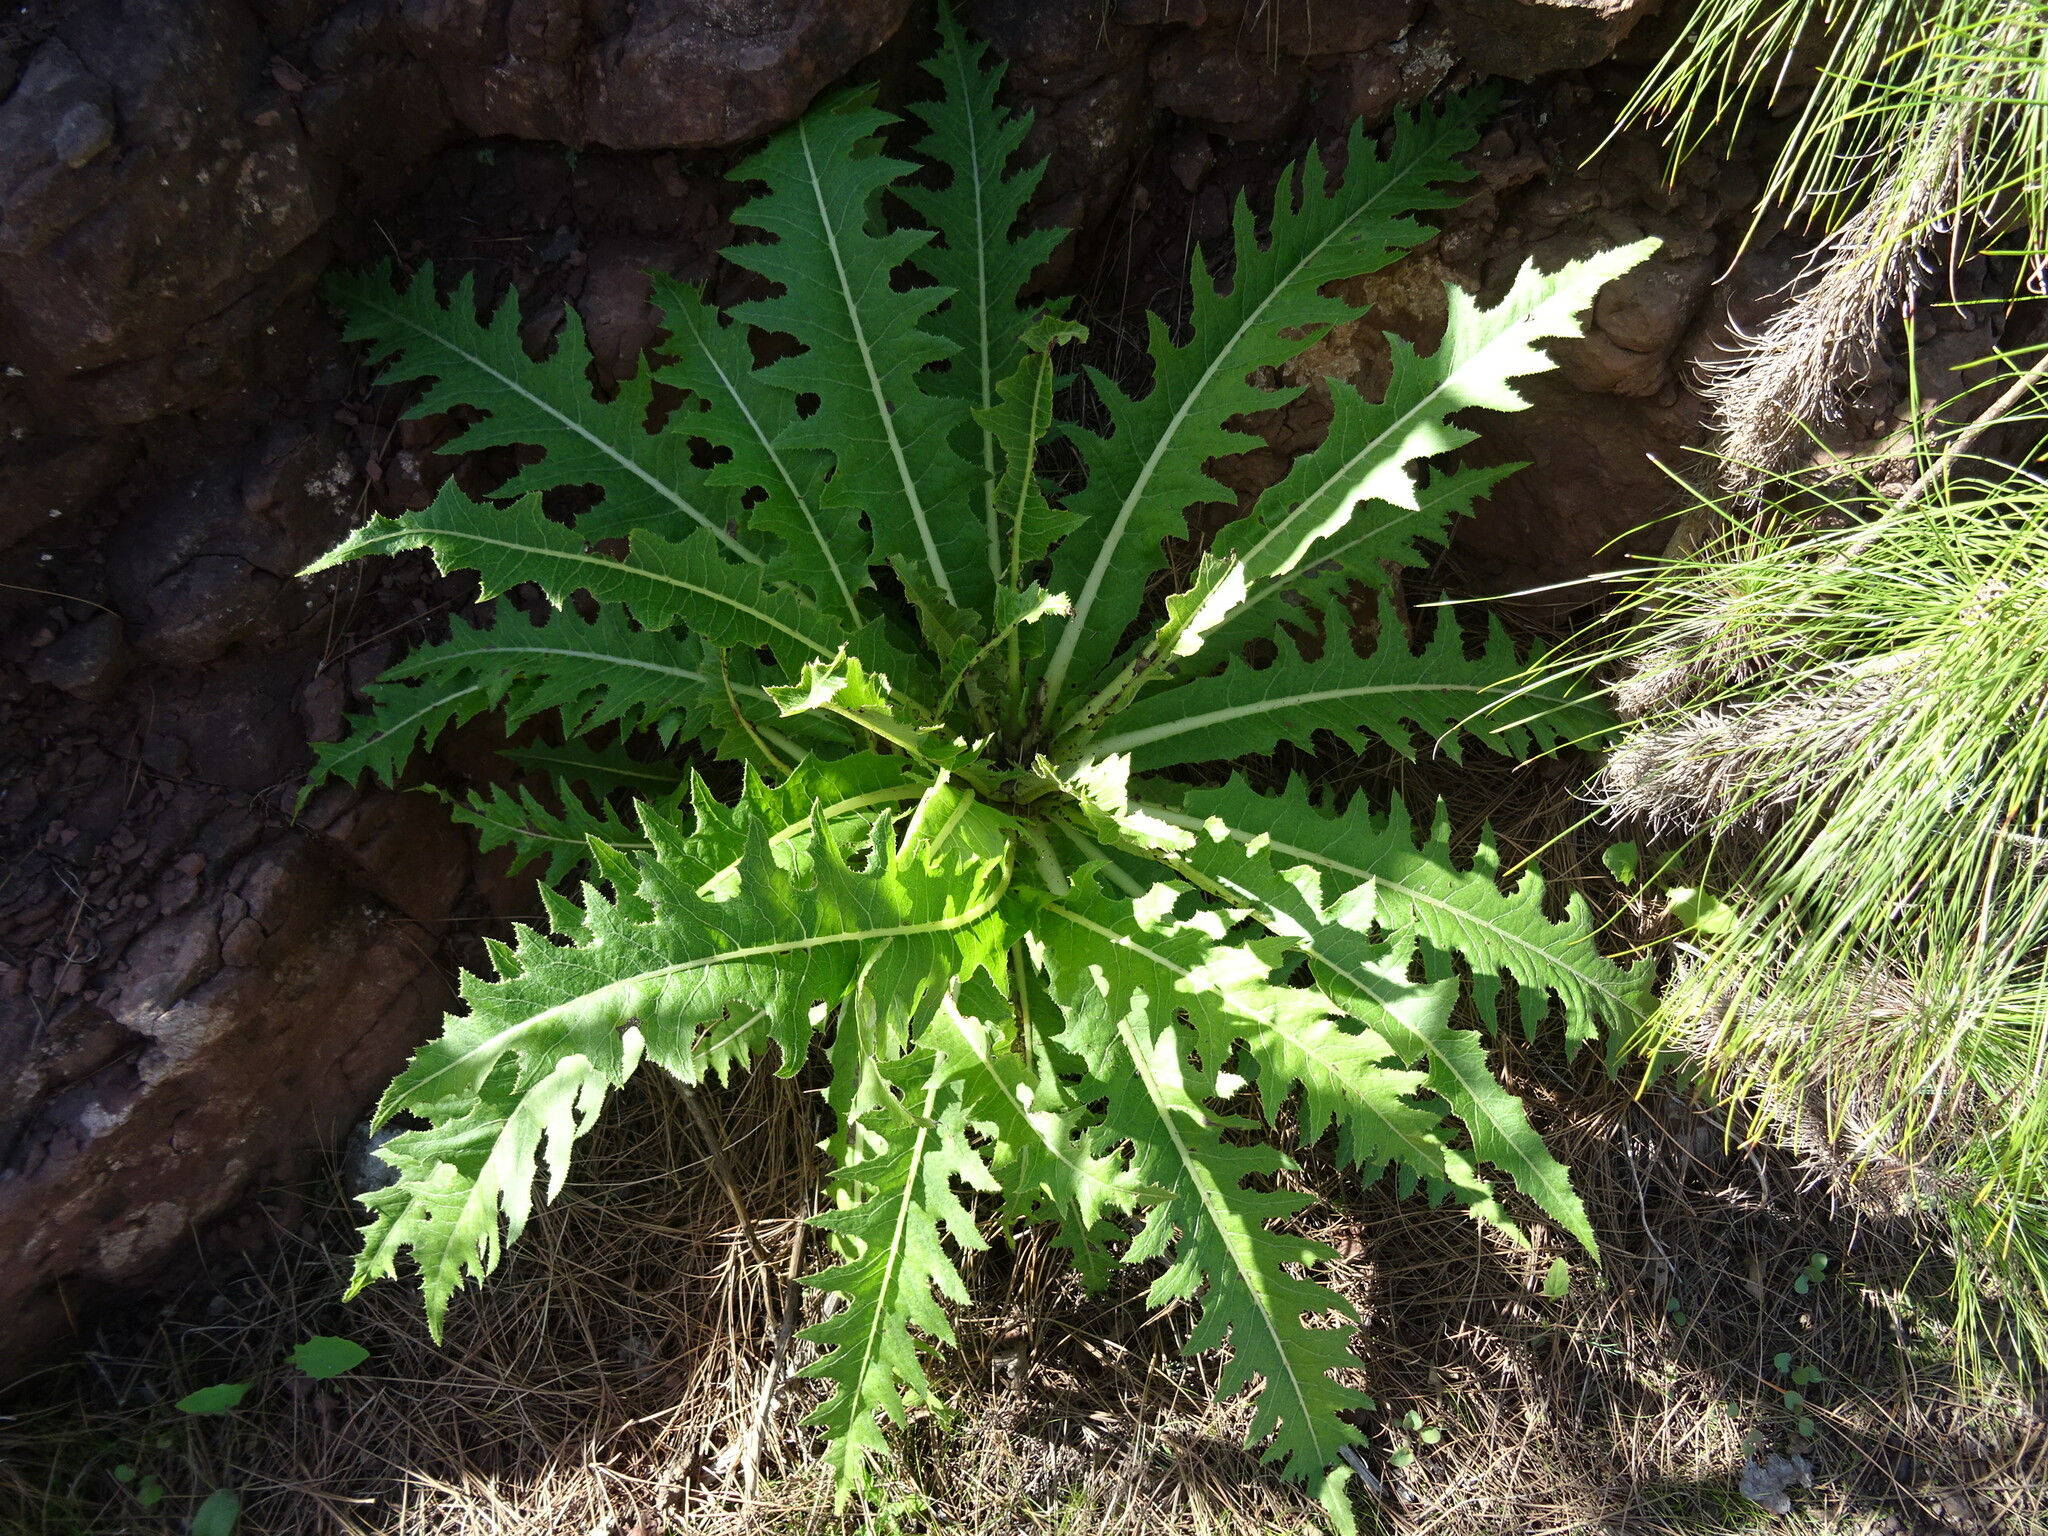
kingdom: Plantae
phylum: Tracheophyta
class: Magnoliopsida
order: Asterales
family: Asteraceae
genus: Sonchus
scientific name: Sonchus acaulis
